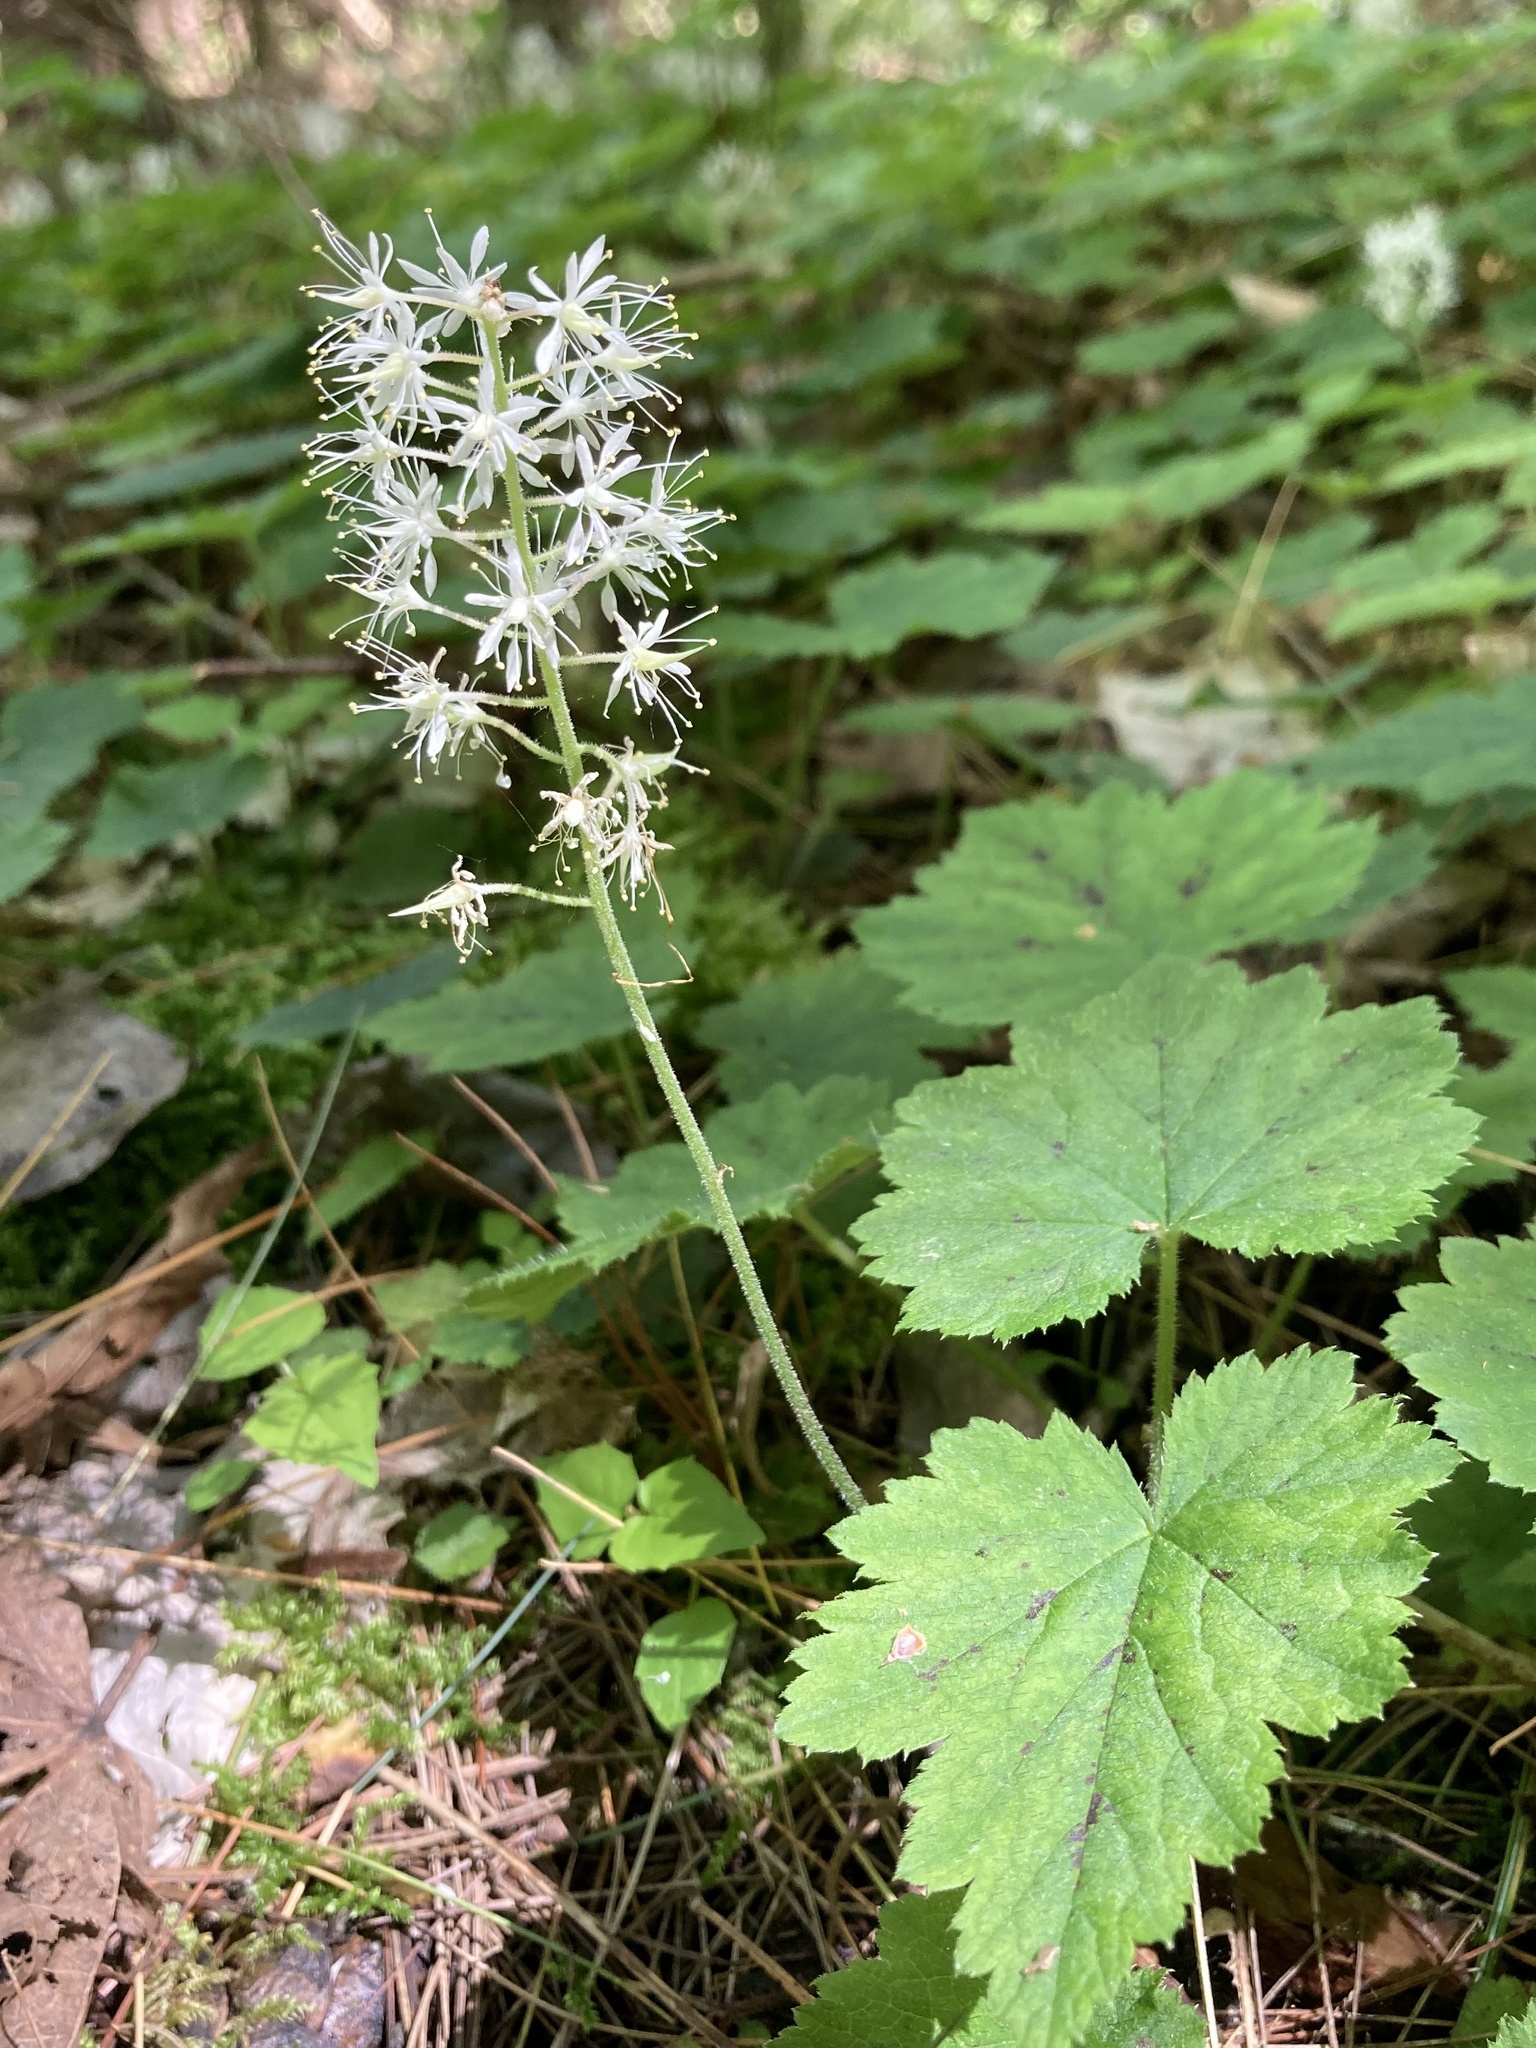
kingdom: Plantae
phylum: Tracheophyta
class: Magnoliopsida
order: Saxifragales
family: Saxifragaceae
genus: Tiarella
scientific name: Tiarella stolonifera
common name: Stoloniferous foamflower
